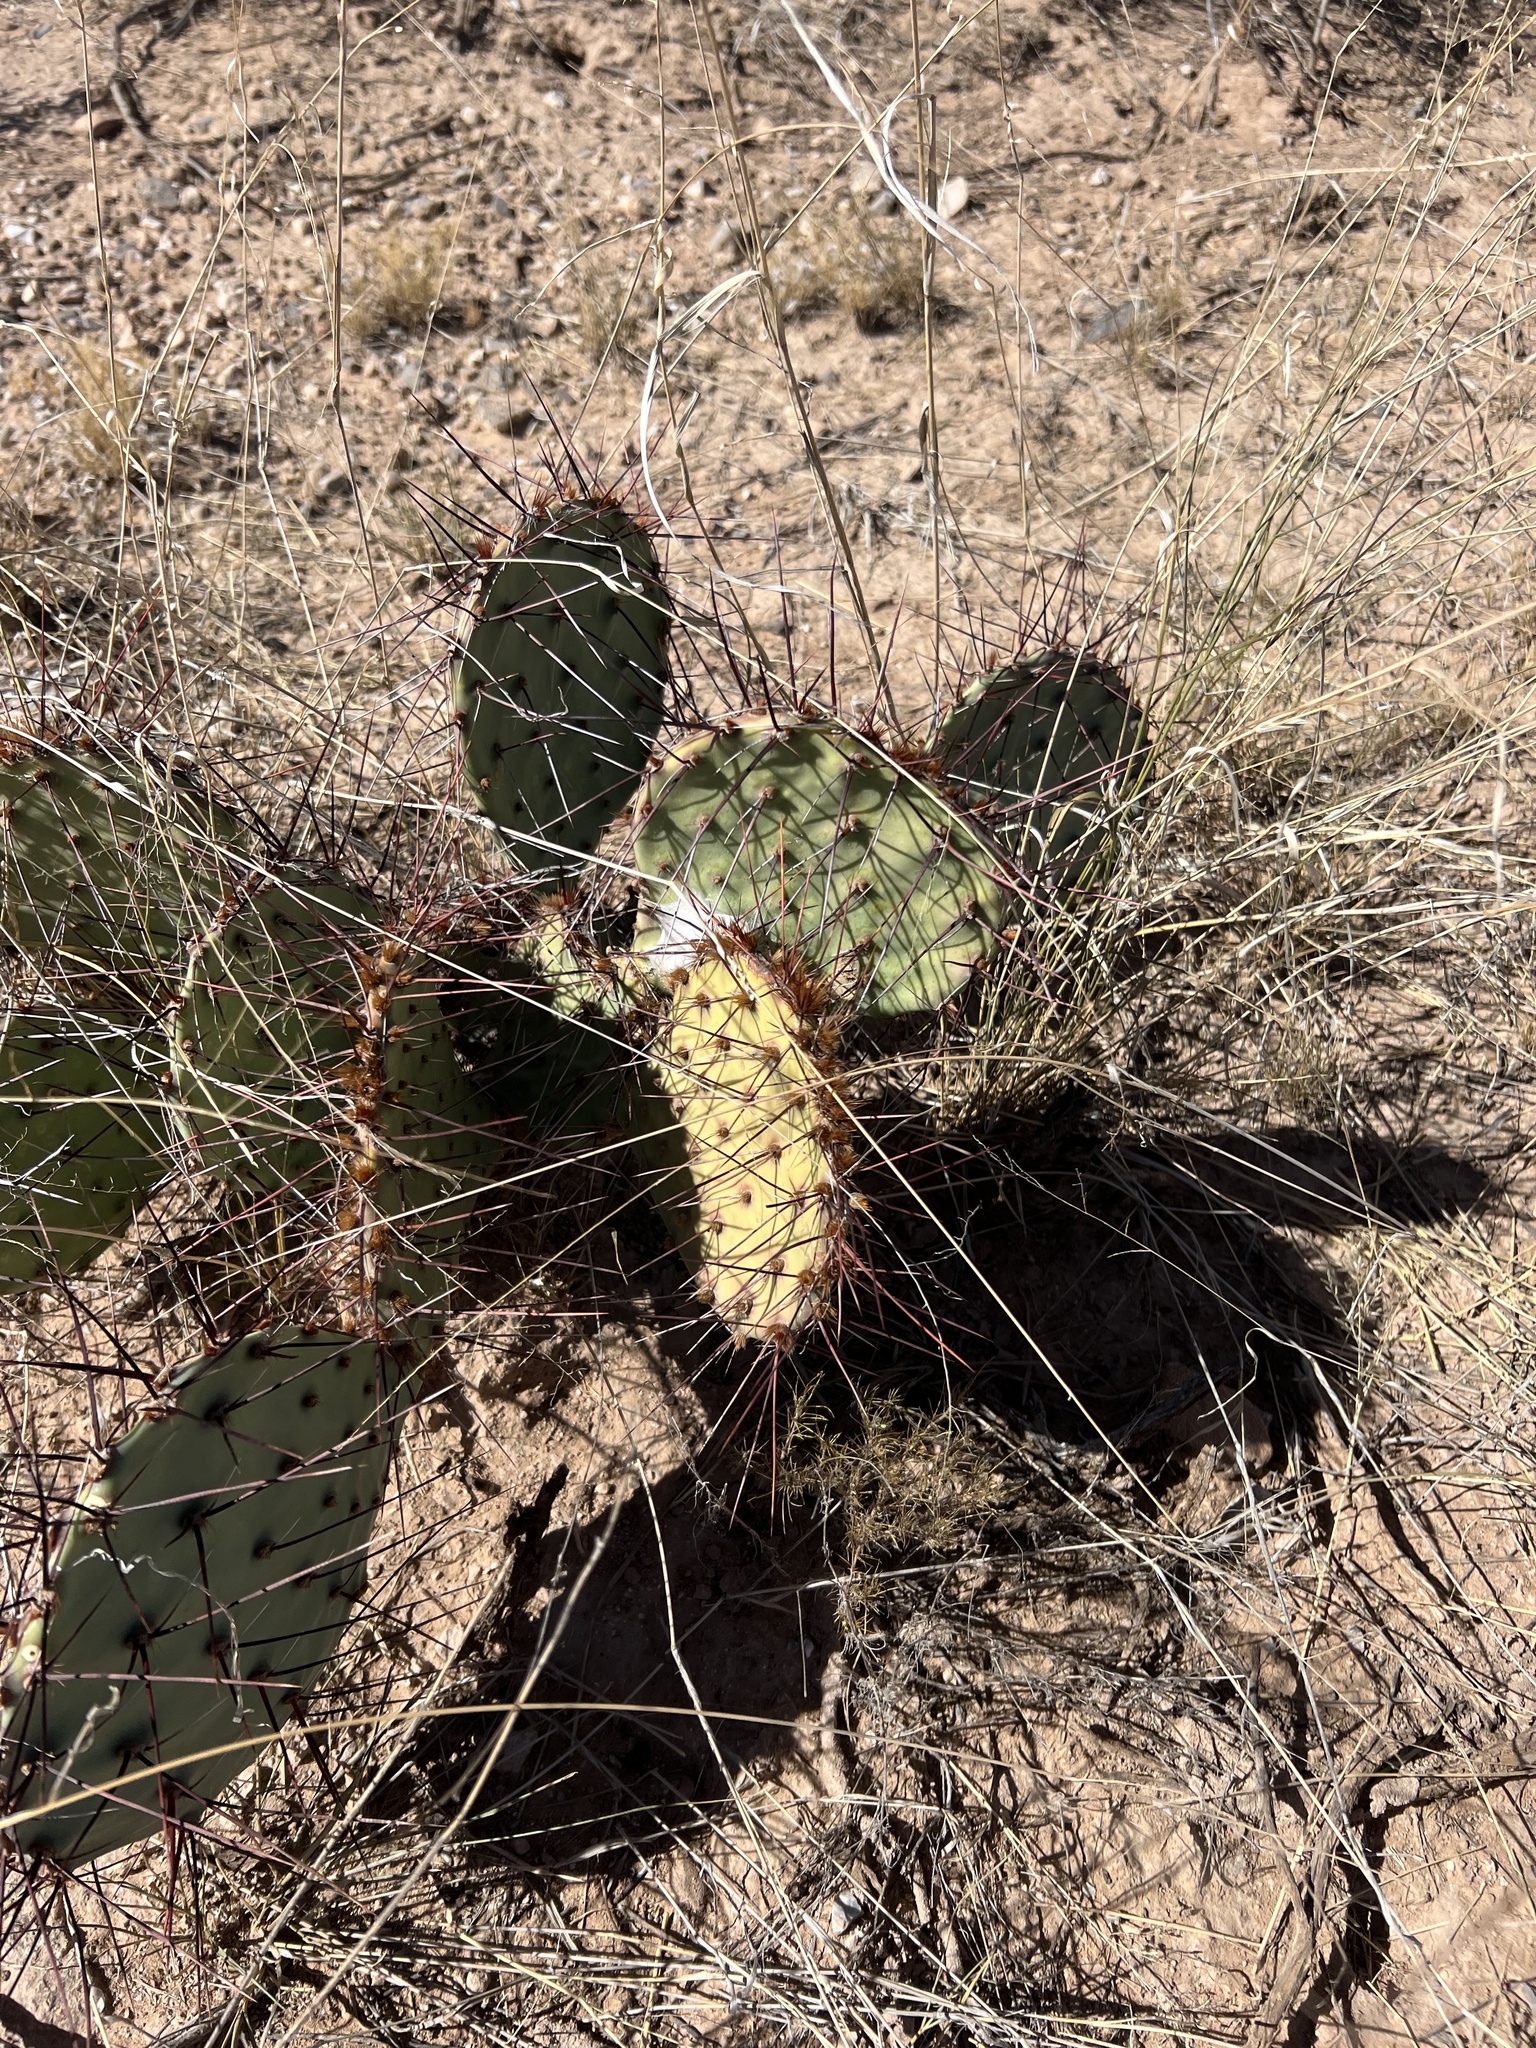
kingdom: Plantae
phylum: Tracheophyta
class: Magnoliopsida
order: Caryophyllales
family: Cactaceae
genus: Opuntia
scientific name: Opuntia phaeacantha
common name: New mexico prickly-pear
